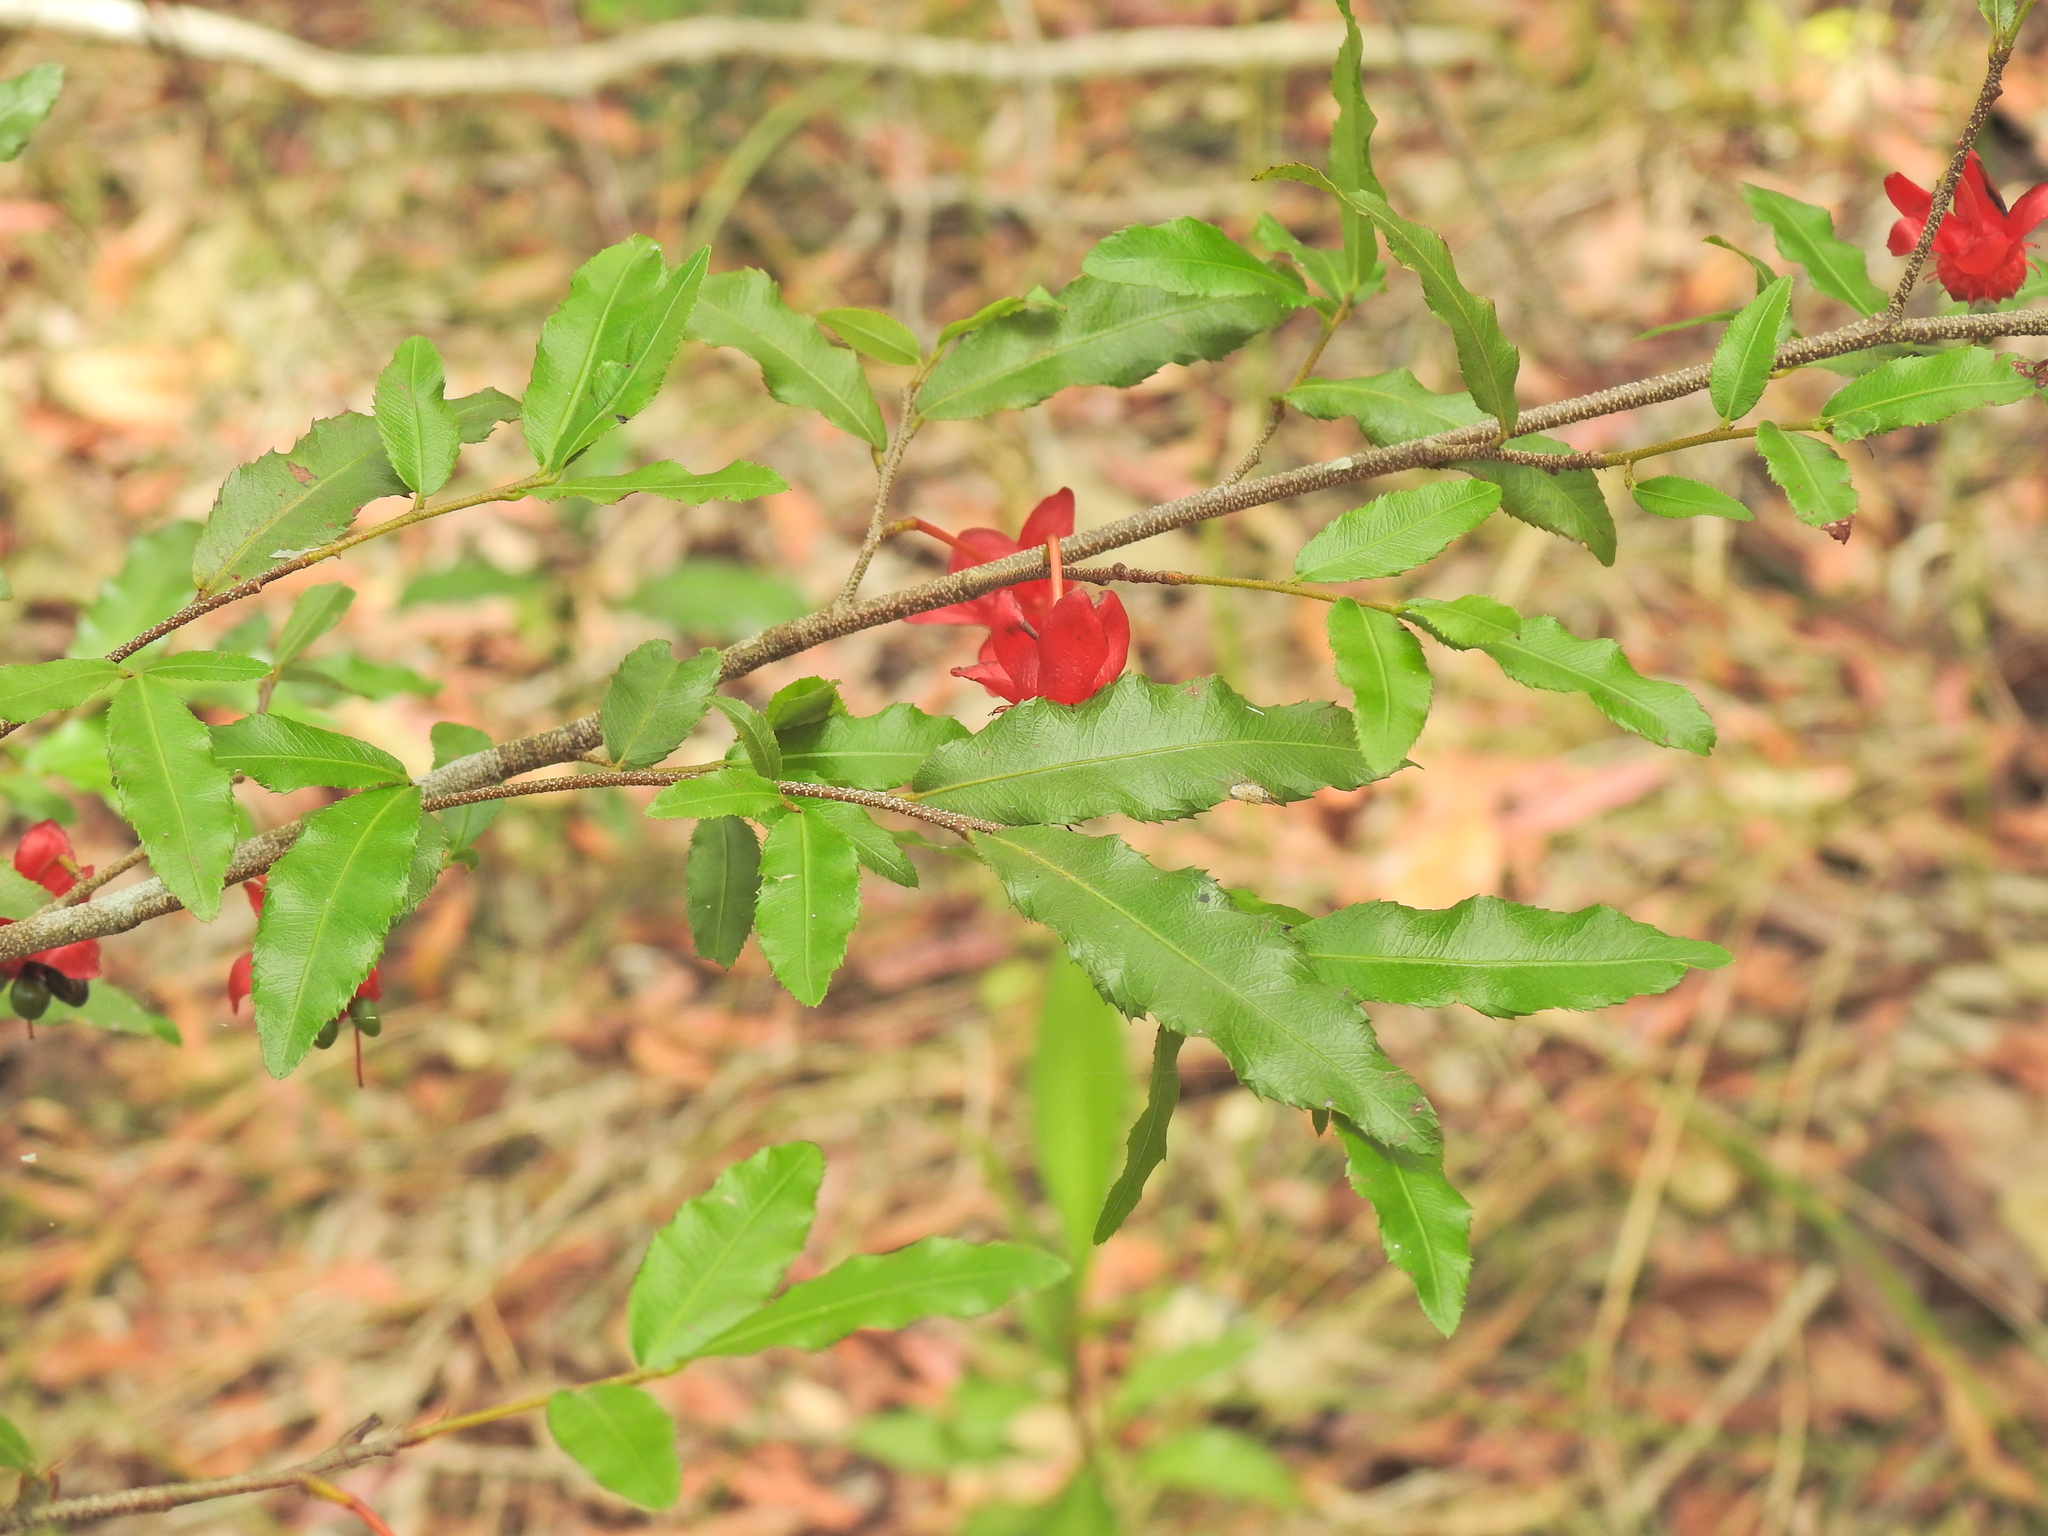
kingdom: Plantae
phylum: Tracheophyta
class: Magnoliopsida
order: Malpighiales
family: Ochnaceae
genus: Ochna
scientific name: Ochna serrulata
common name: Mickey mouse plant
